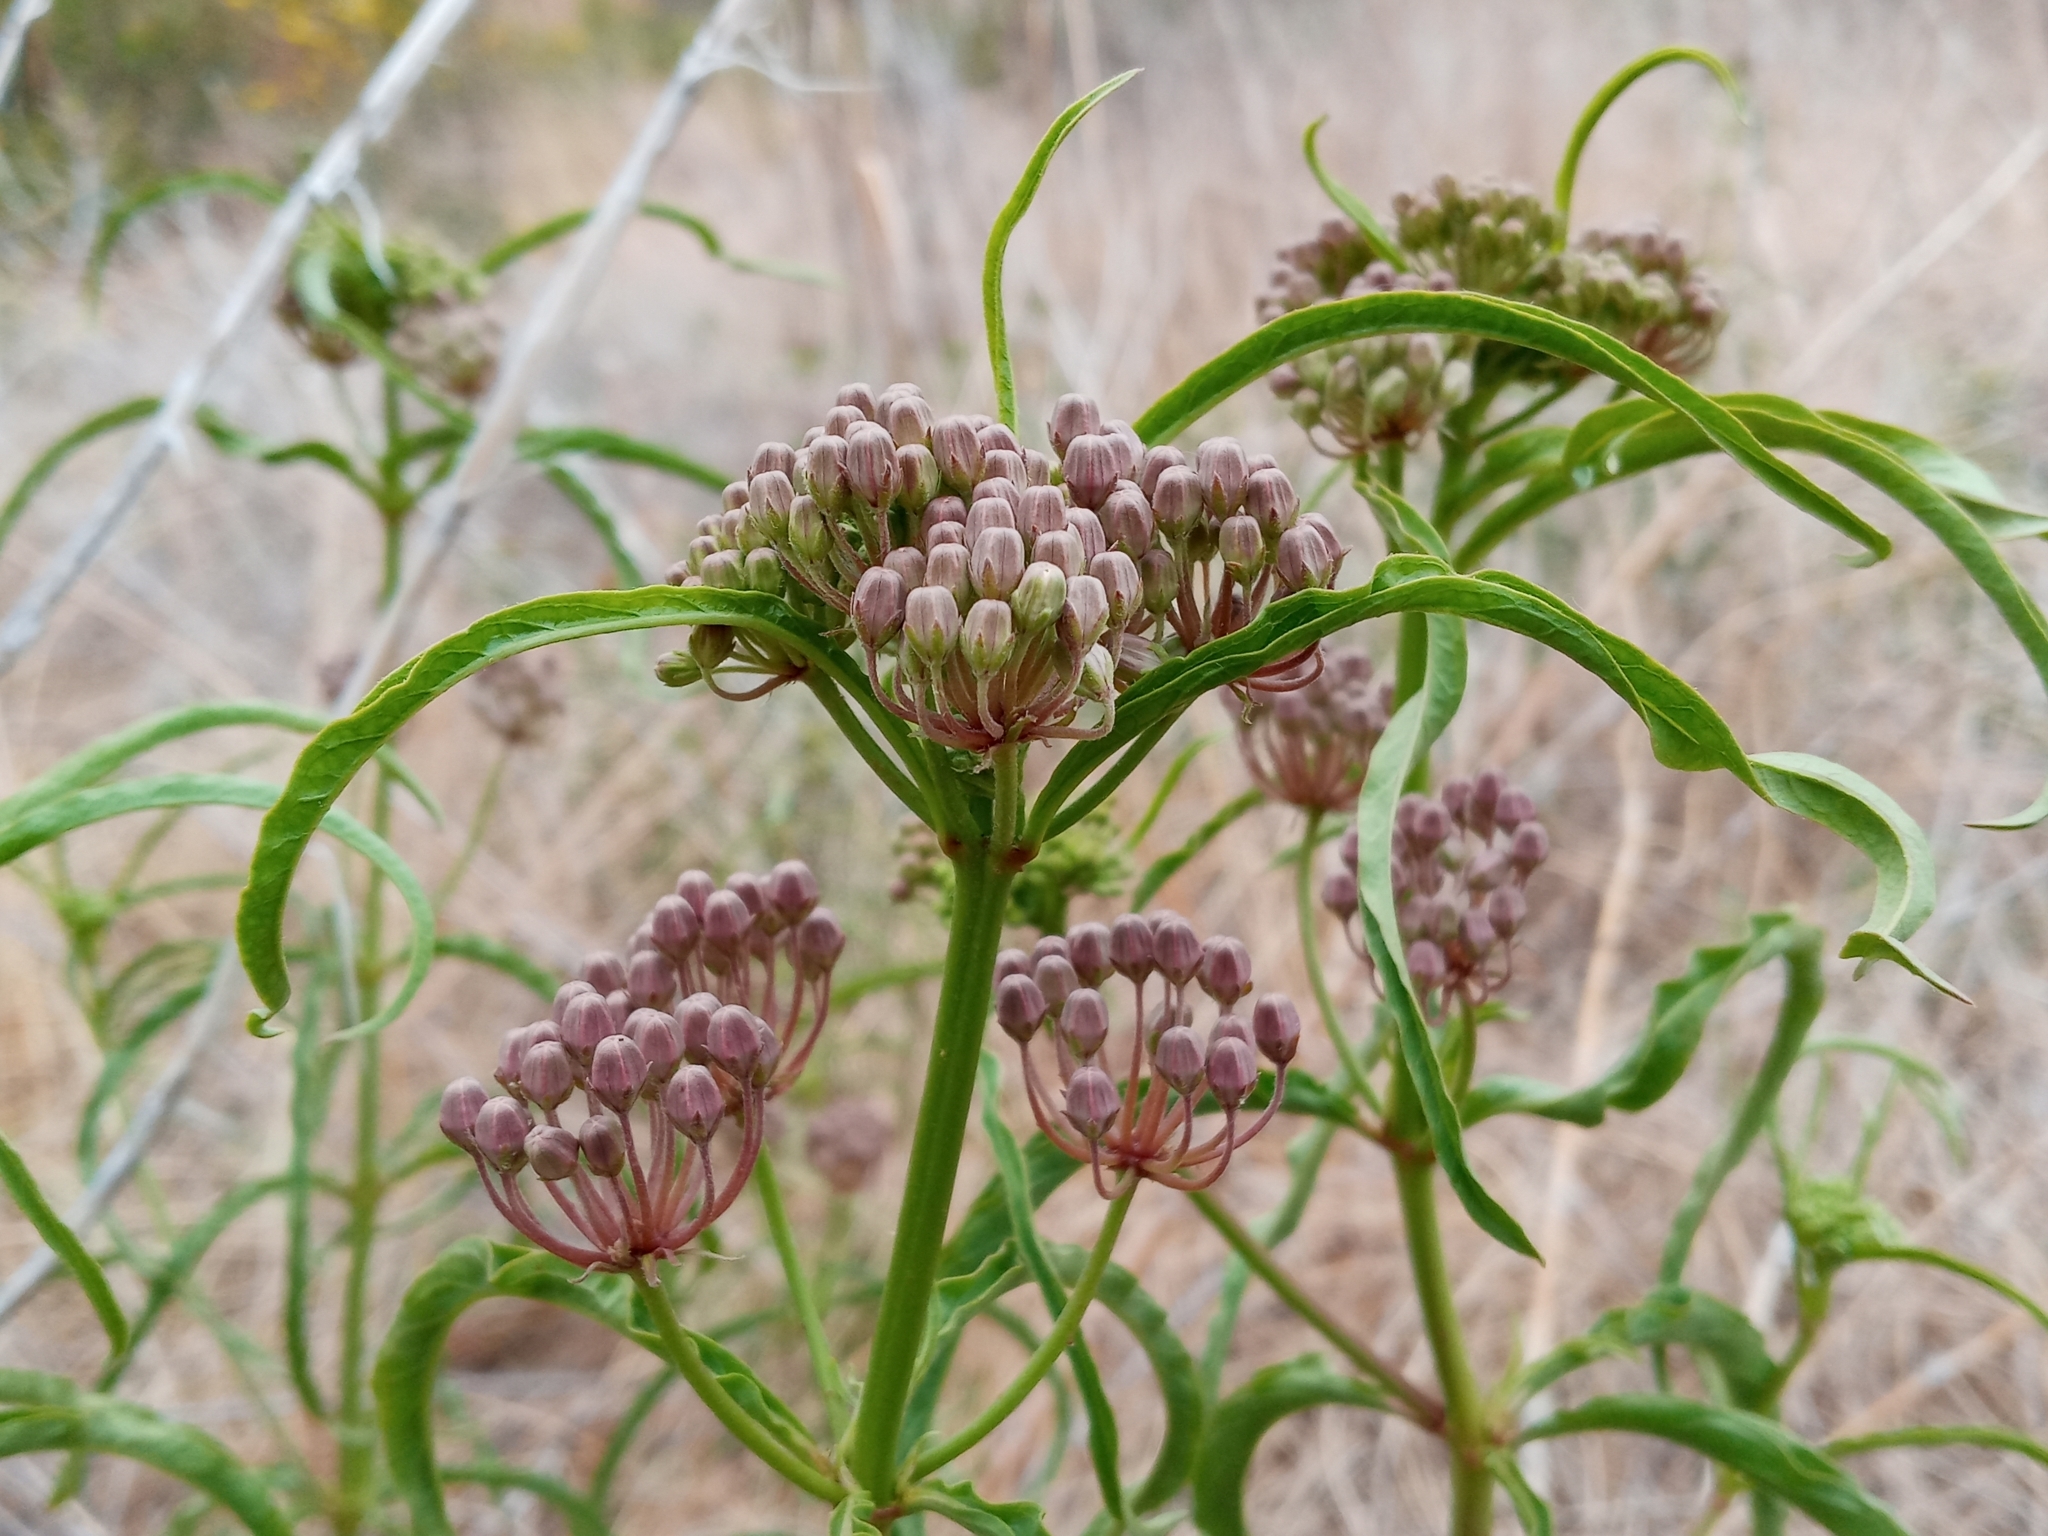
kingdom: Plantae
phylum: Tracheophyta
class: Magnoliopsida
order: Gentianales
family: Apocynaceae
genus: Asclepias
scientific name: Asclepias fascicularis
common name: Mexican milkweed
